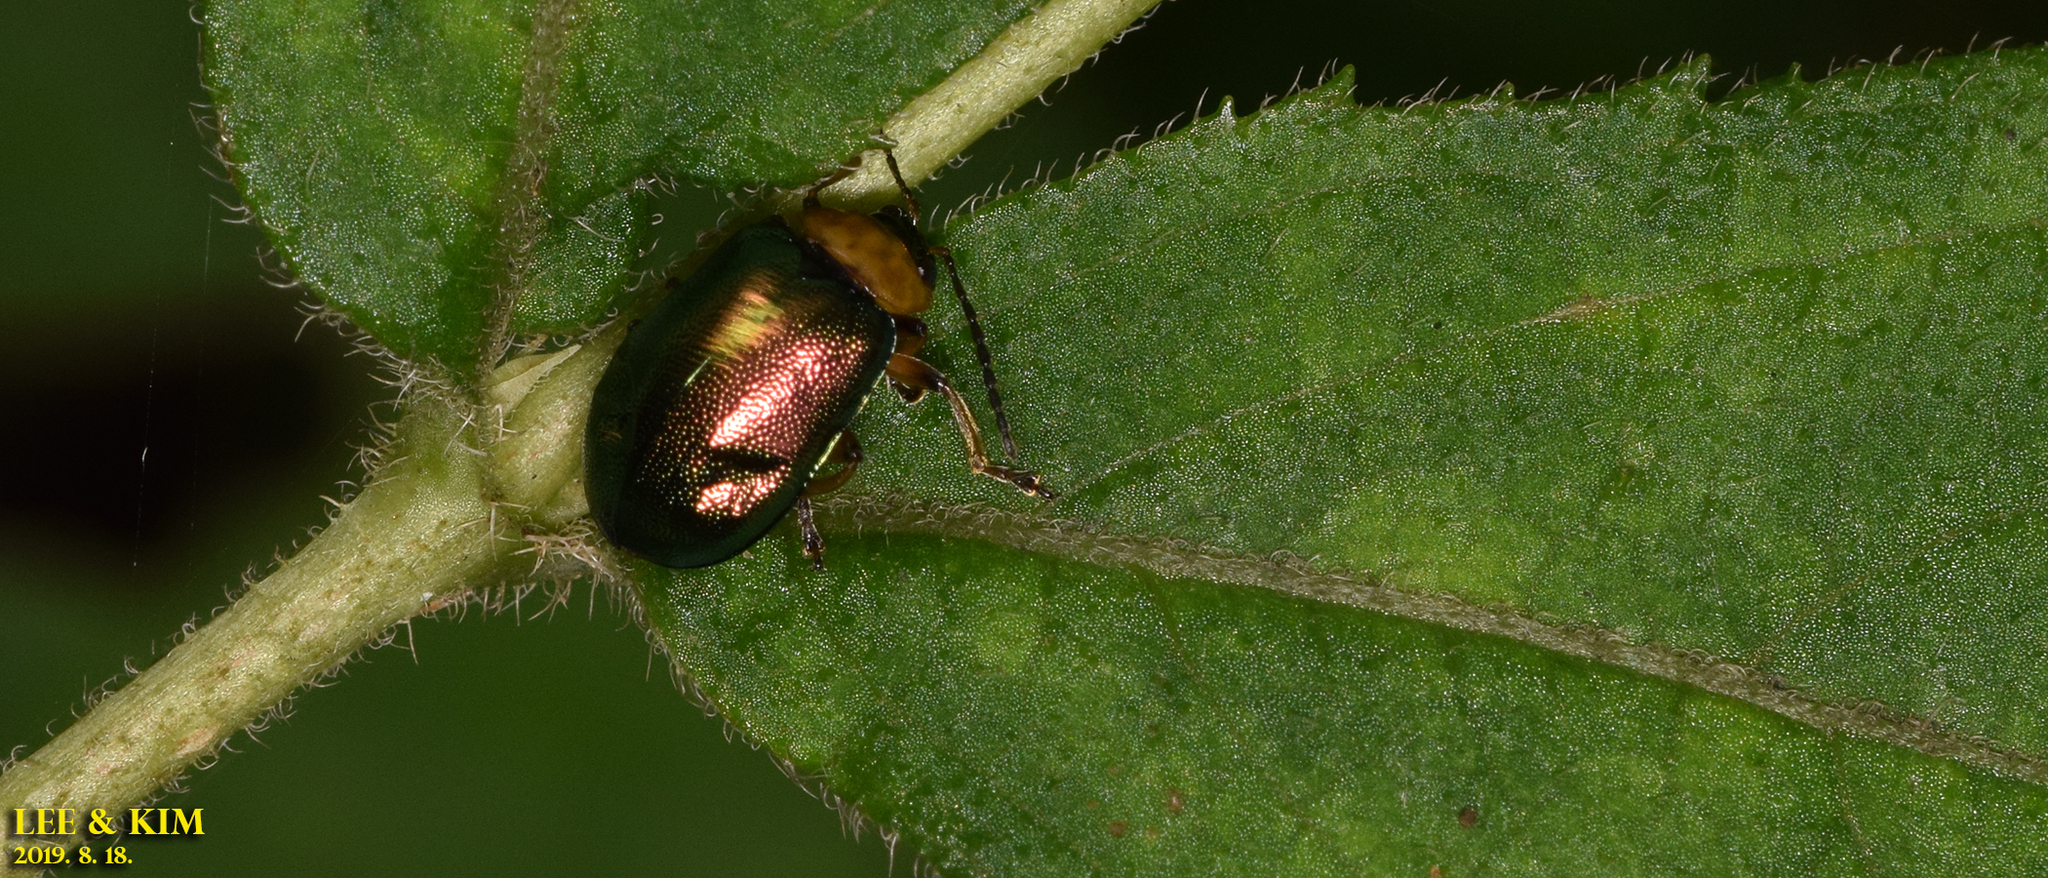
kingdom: Animalia
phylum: Arthropoda
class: Insecta
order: Coleoptera
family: Chrysomelidae
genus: Agelasa
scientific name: Agelasa nigriceps
